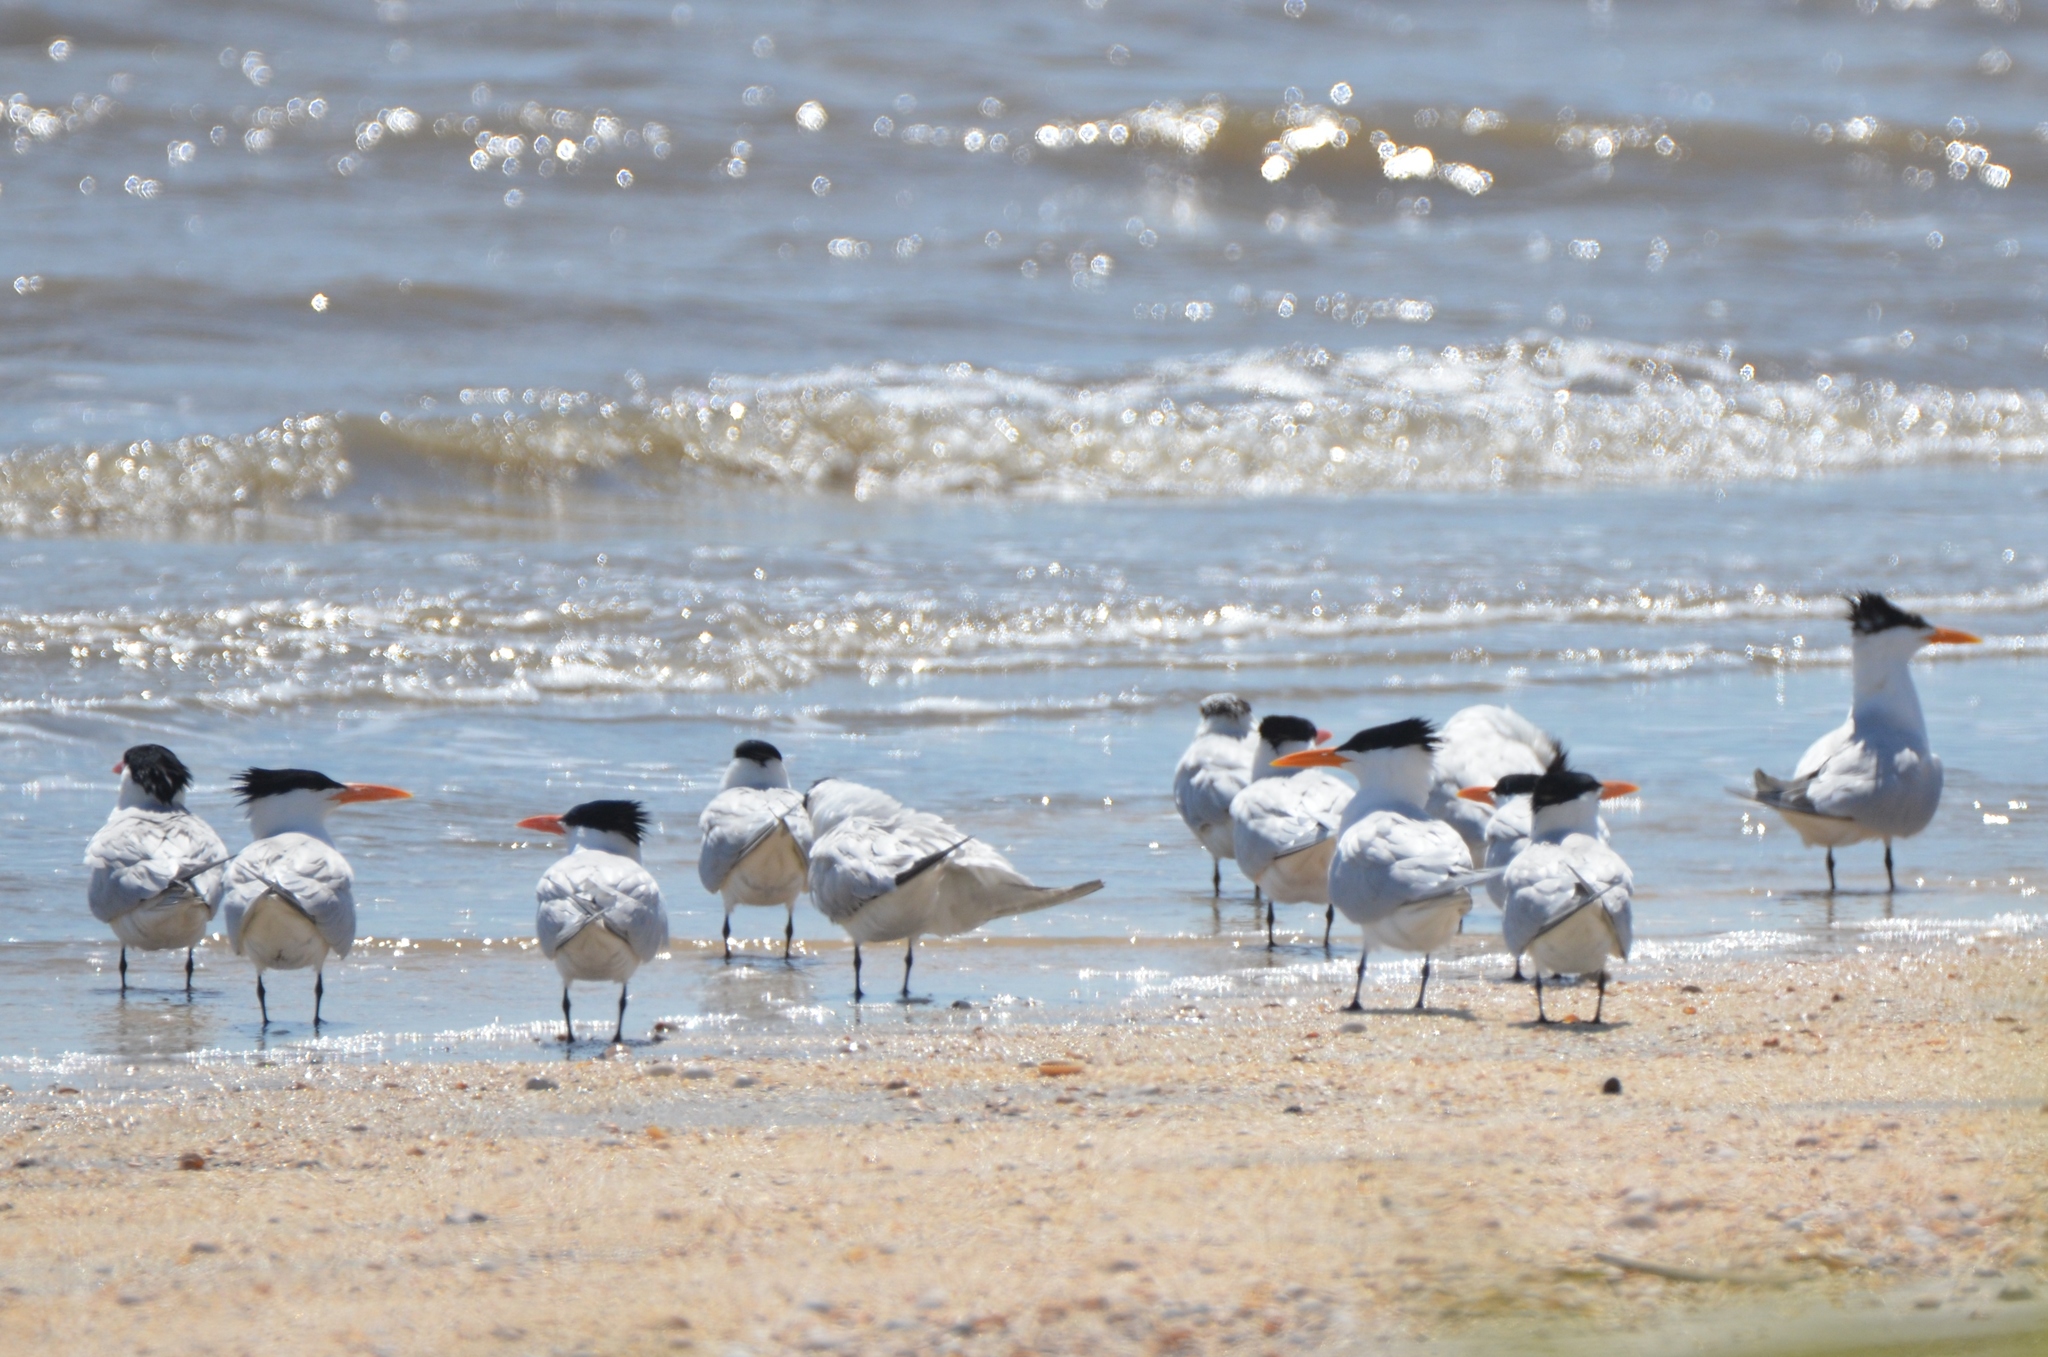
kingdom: Animalia
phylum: Chordata
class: Aves
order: Charadriiformes
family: Laridae
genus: Thalasseus
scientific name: Thalasseus maximus
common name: Royal tern
